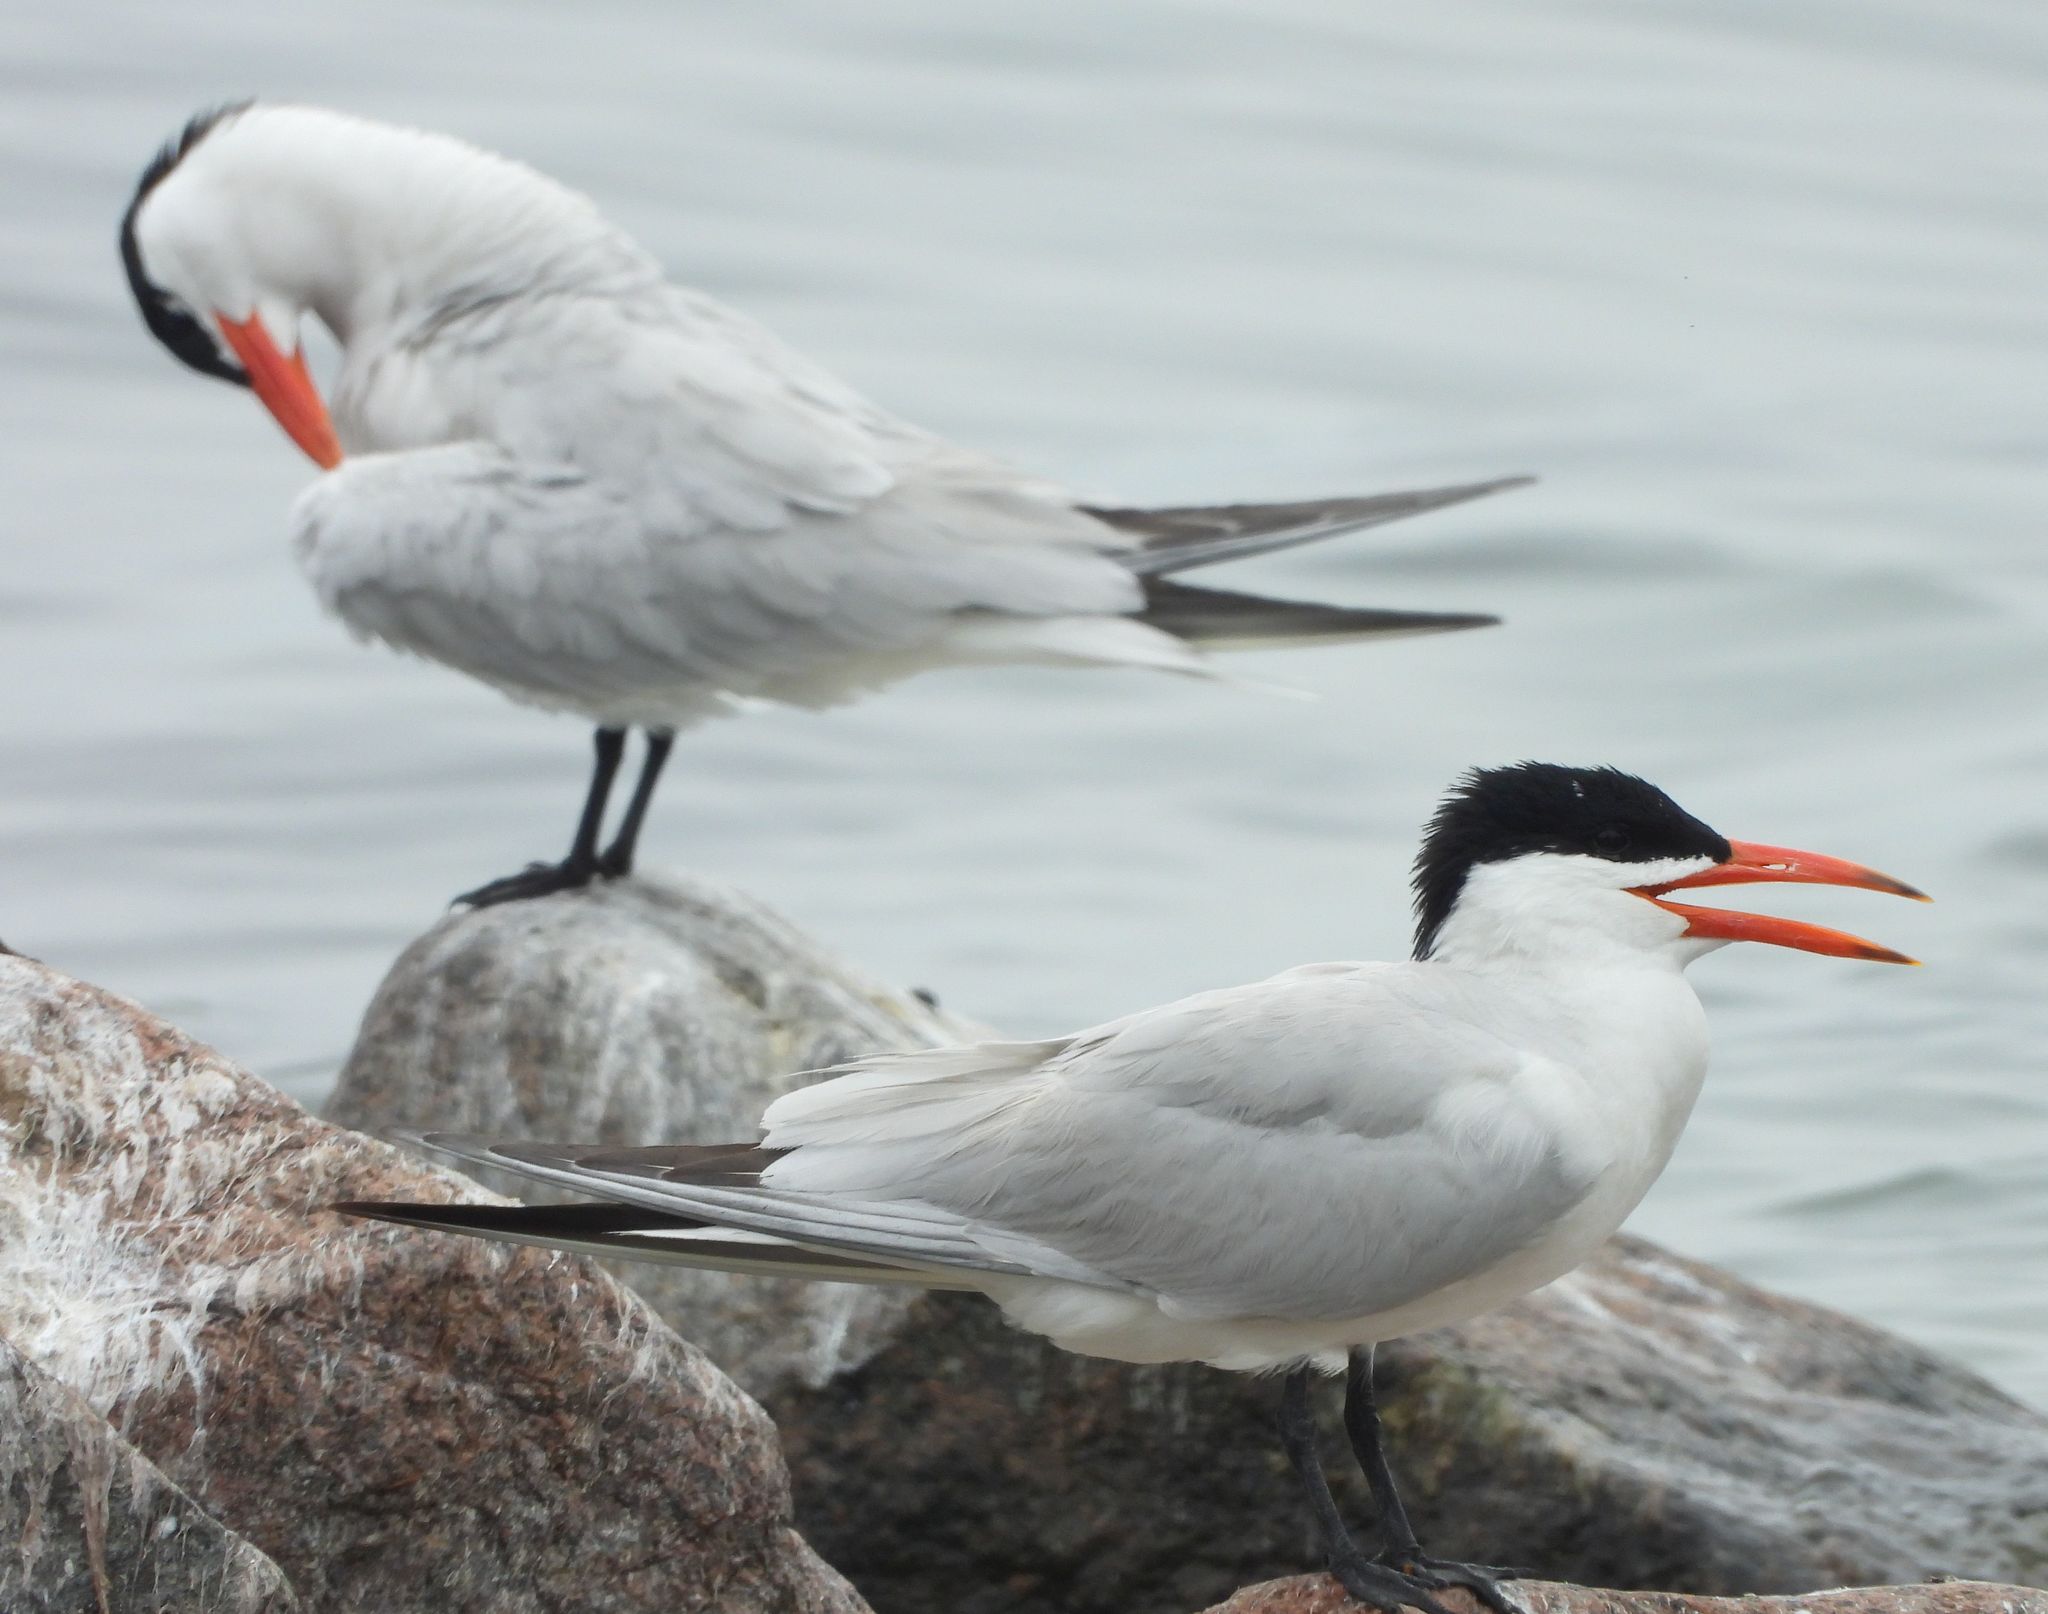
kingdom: Animalia
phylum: Chordata
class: Aves
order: Charadriiformes
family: Laridae
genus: Hydroprogne
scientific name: Hydroprogne caspia
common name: Caspian tern
